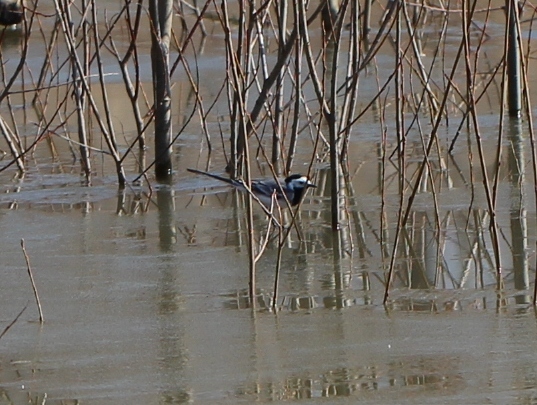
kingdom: Animalia
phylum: Chordata
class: Aves
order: Passeriformes
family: Motacillidae
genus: Motacilla
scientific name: Motacilla alba
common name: White wagtail
